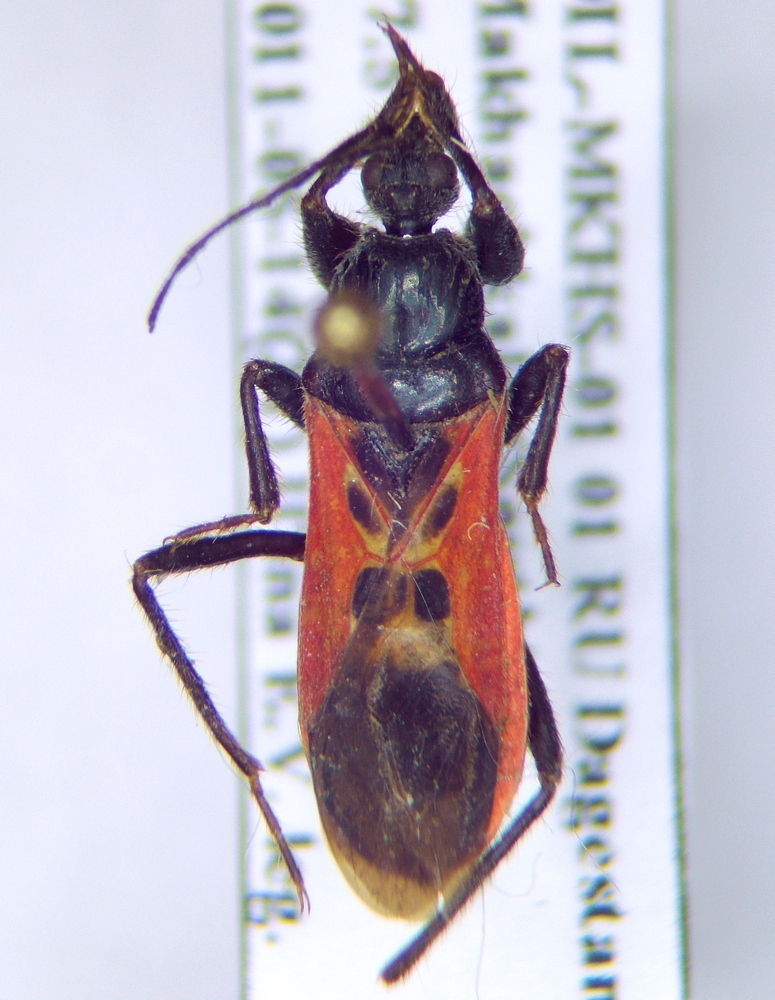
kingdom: Animalia
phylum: Arthropoda
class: Insecta
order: Hemiptera
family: Reduviidae
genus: Peirates
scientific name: Peirates hybridus
